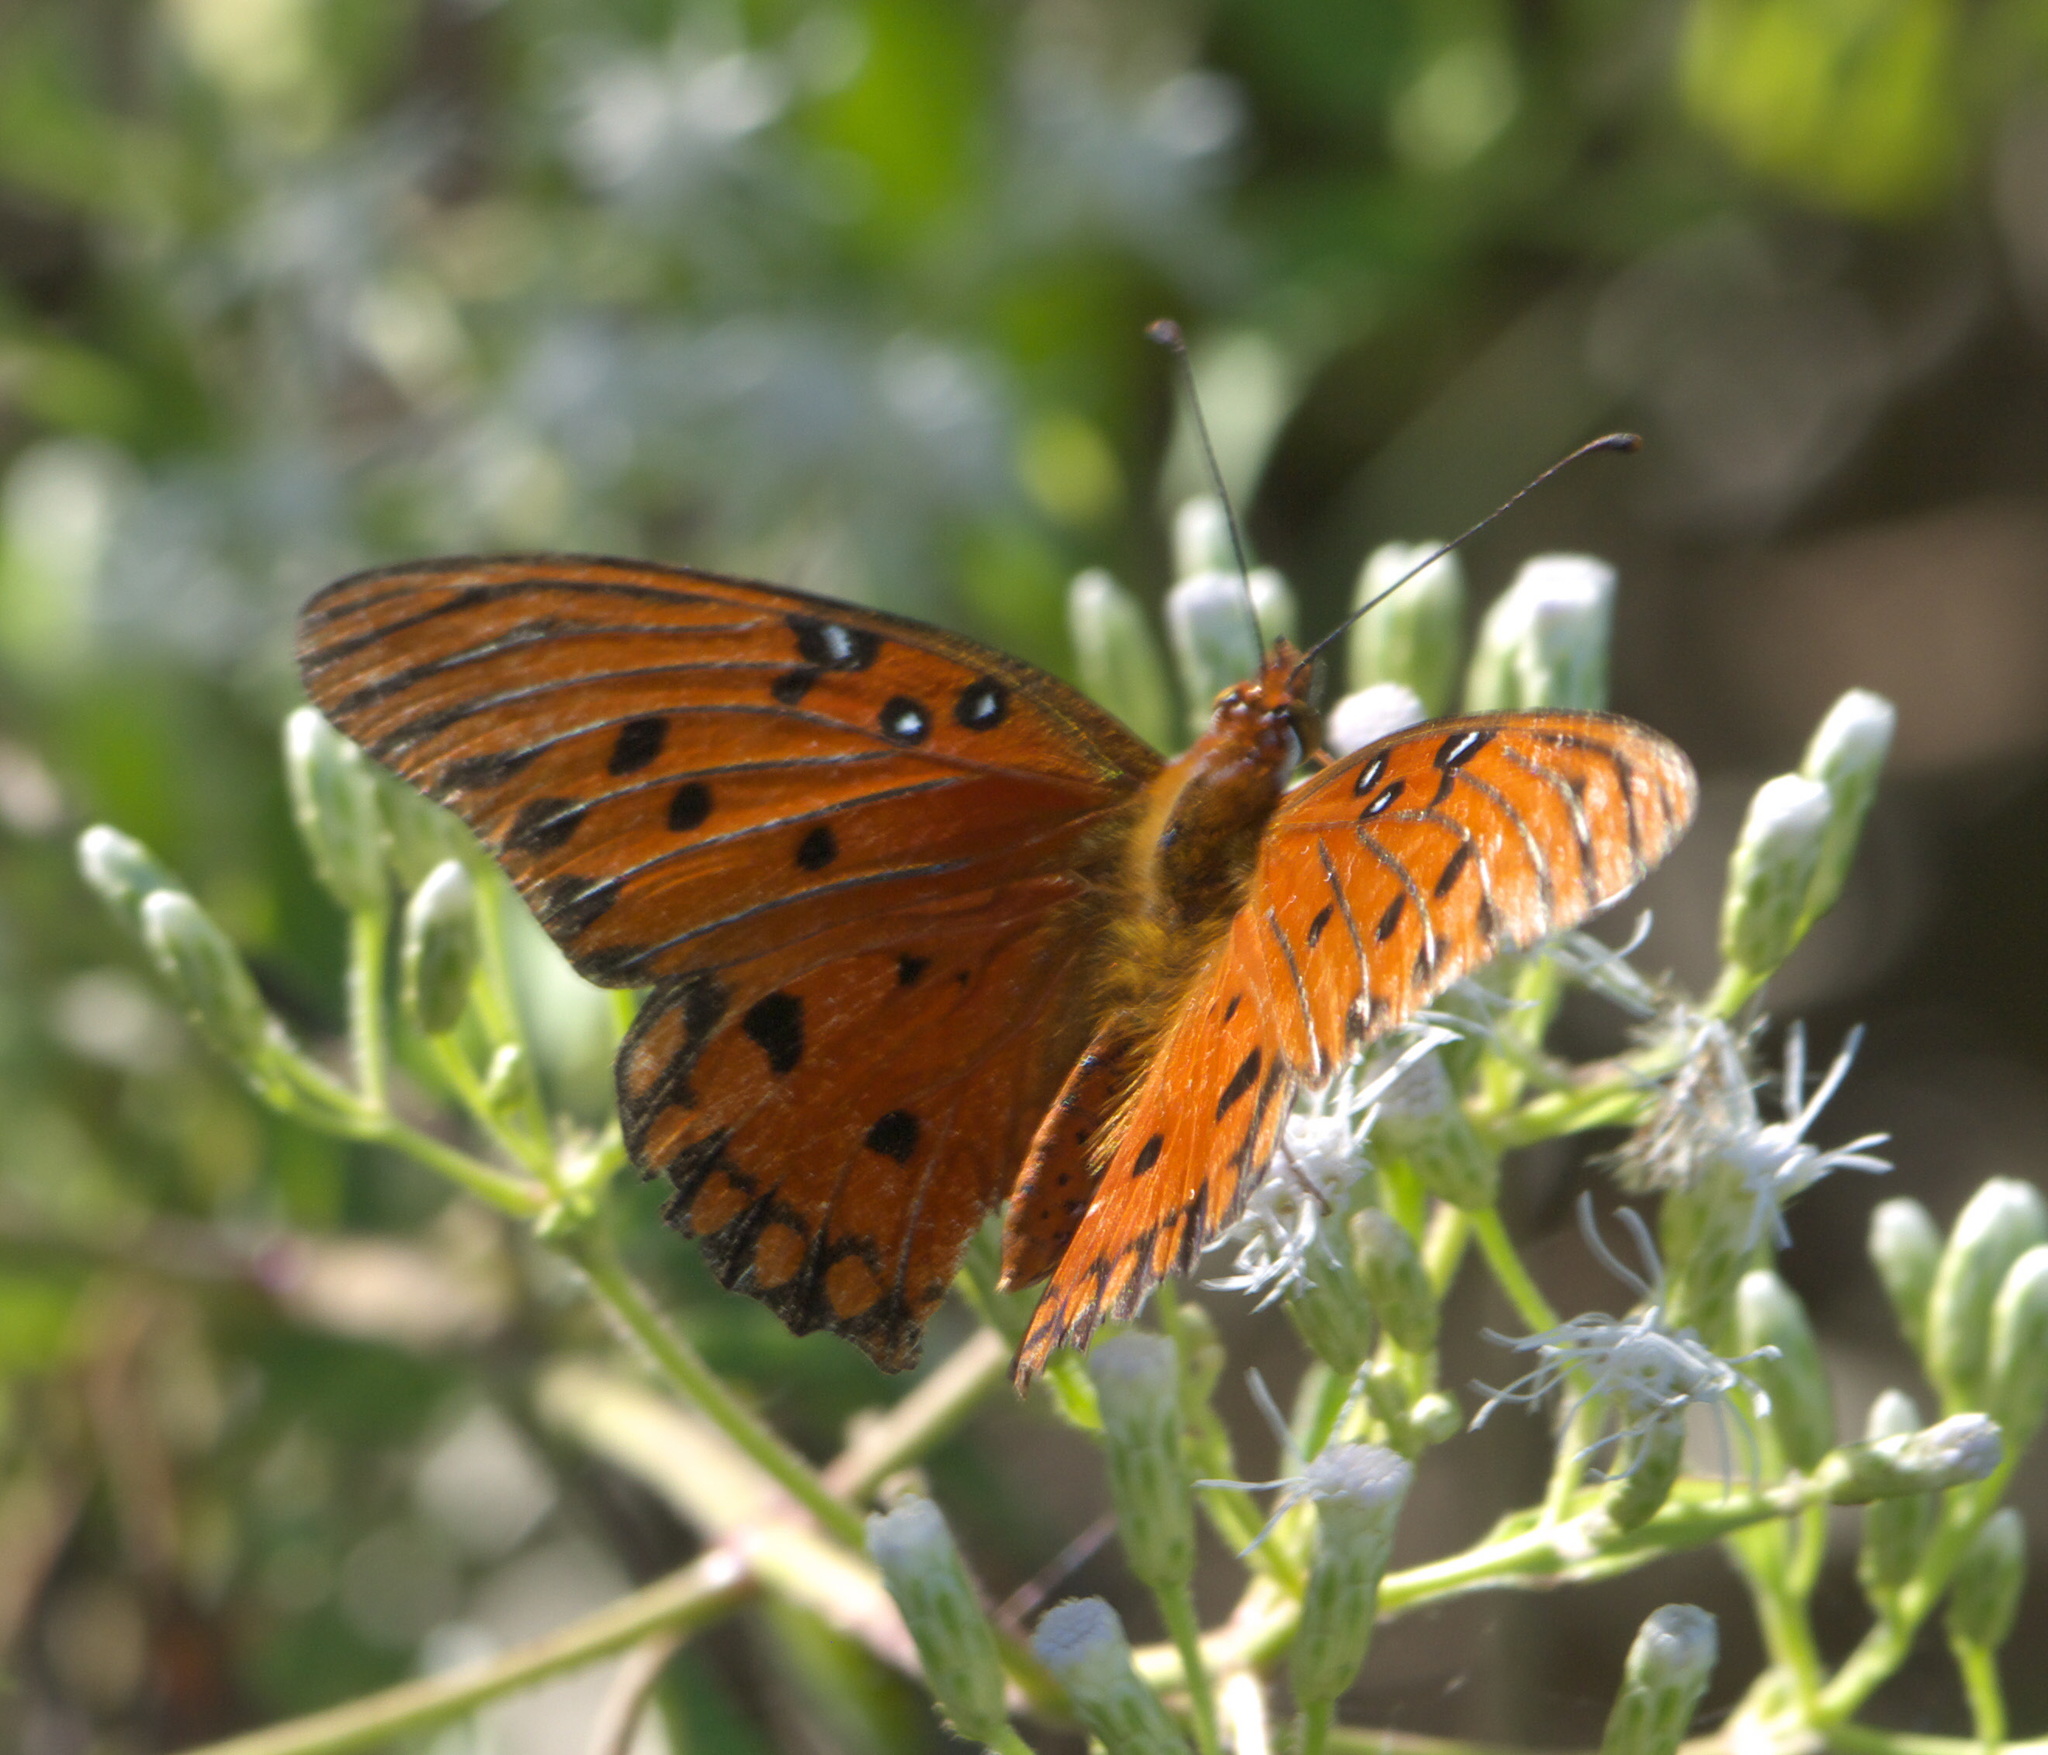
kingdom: Animalia
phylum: Arthropoda
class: Insecta
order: Lepidoptera
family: Nymphalidae
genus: Dione
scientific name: Dione vanillae
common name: Gulf fritillary
